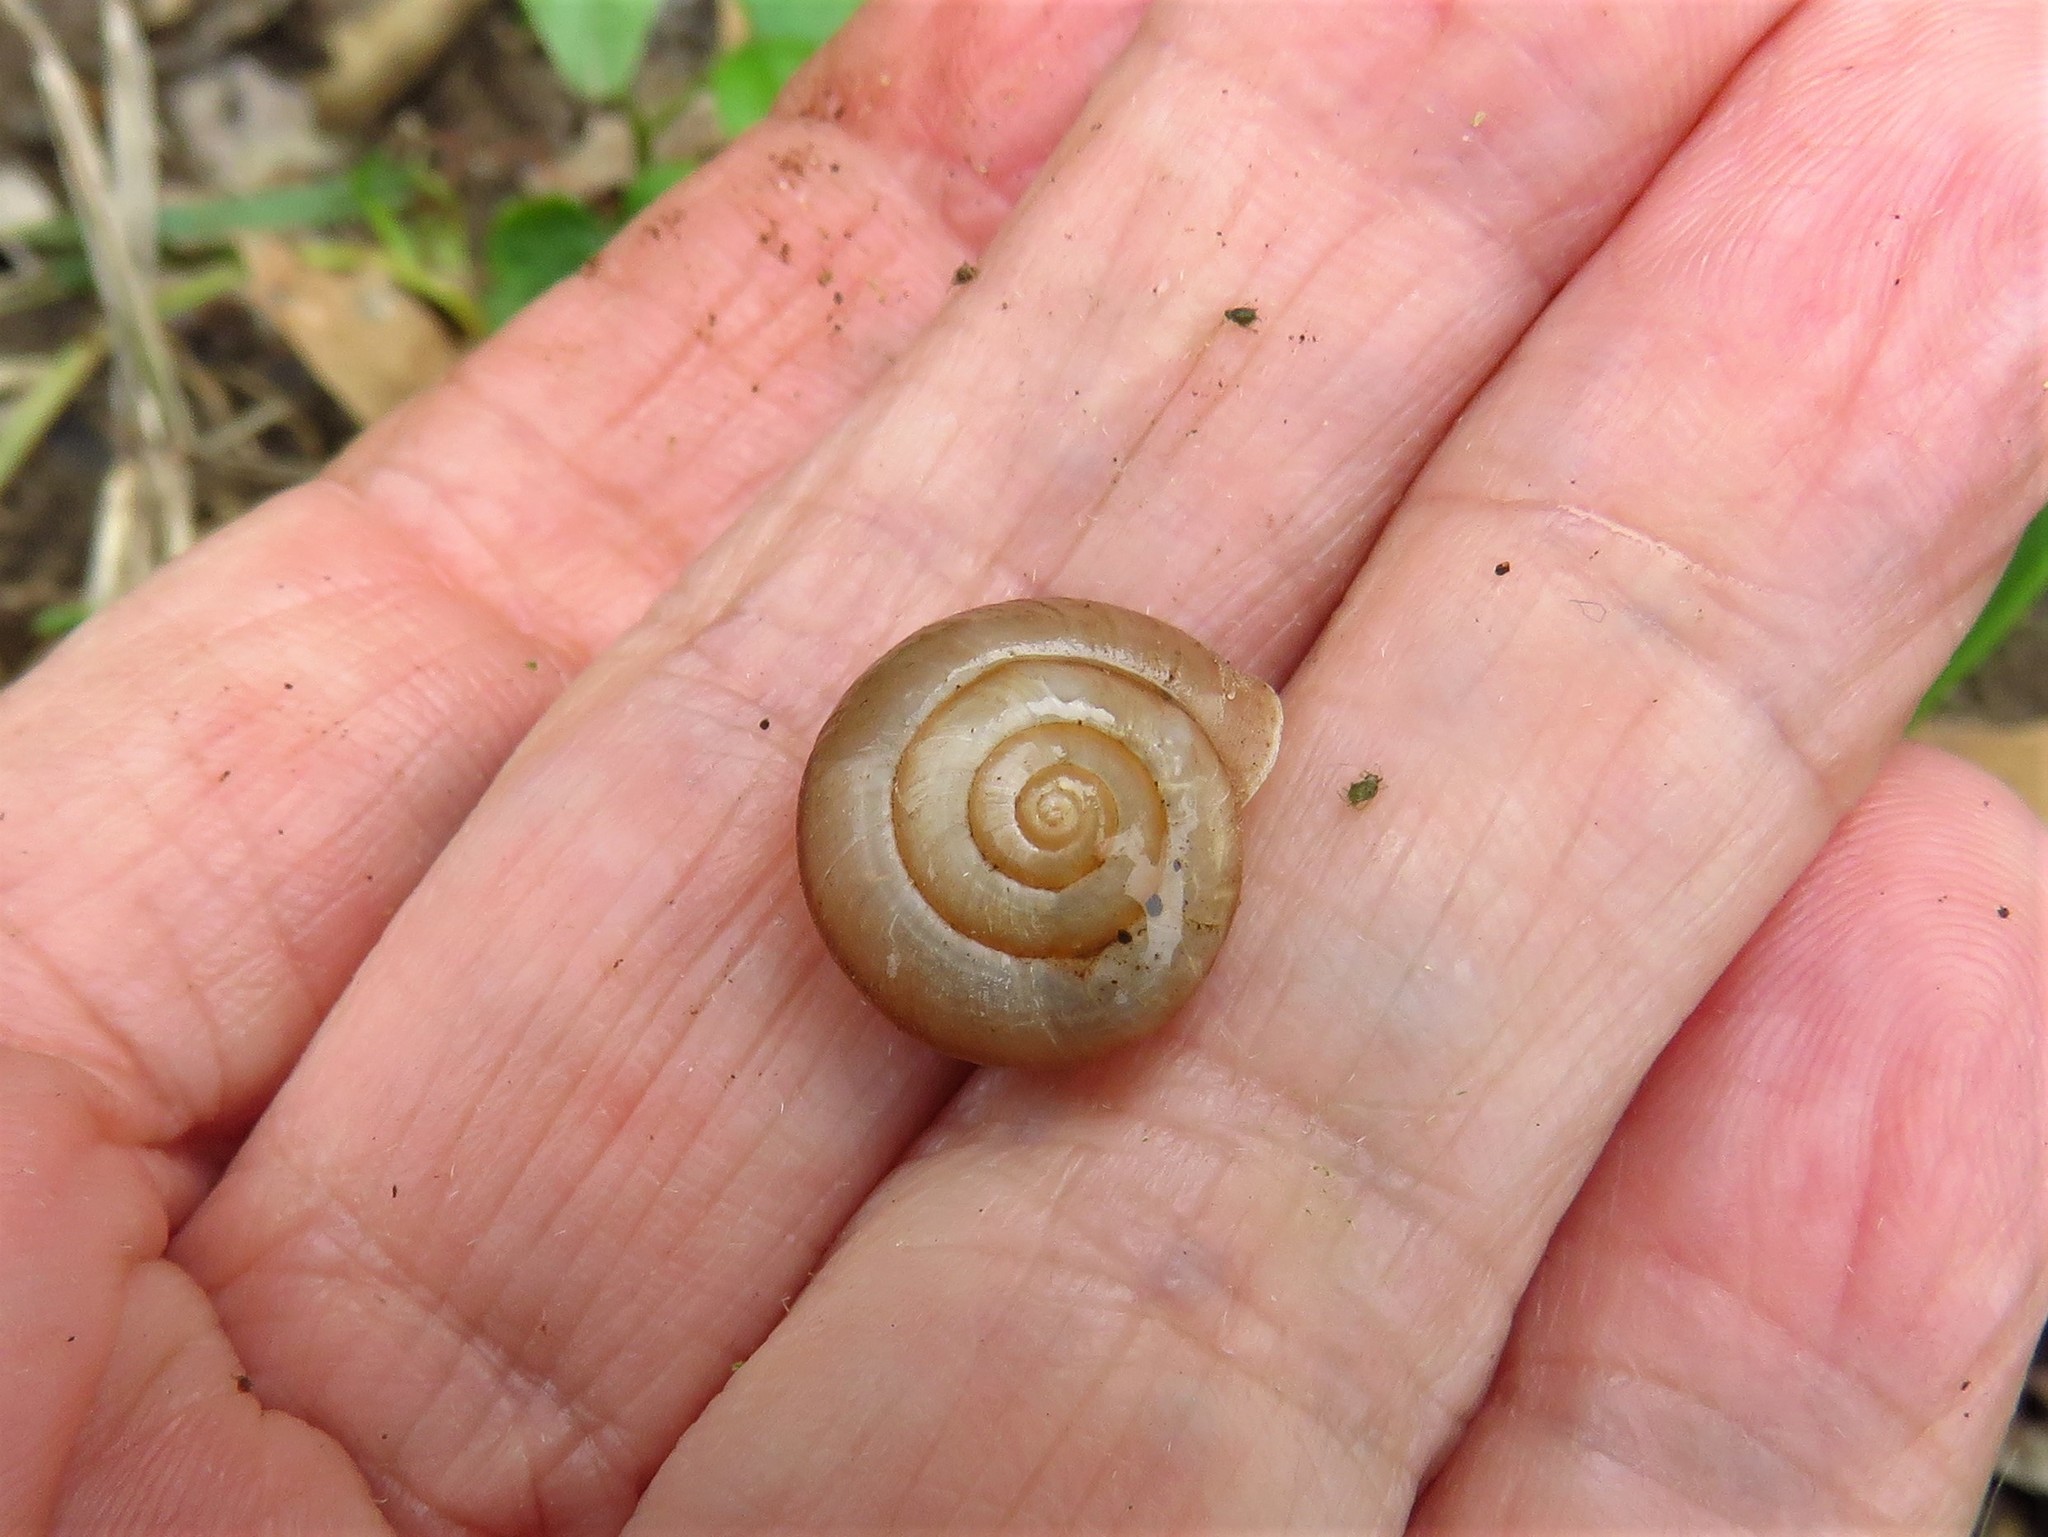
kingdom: Animalia
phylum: Mollusca
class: Gastropoda
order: Stylommatophora
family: Camaenidae
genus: Bradybaena
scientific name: Bradybaena similaris
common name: Asian trampsnail
